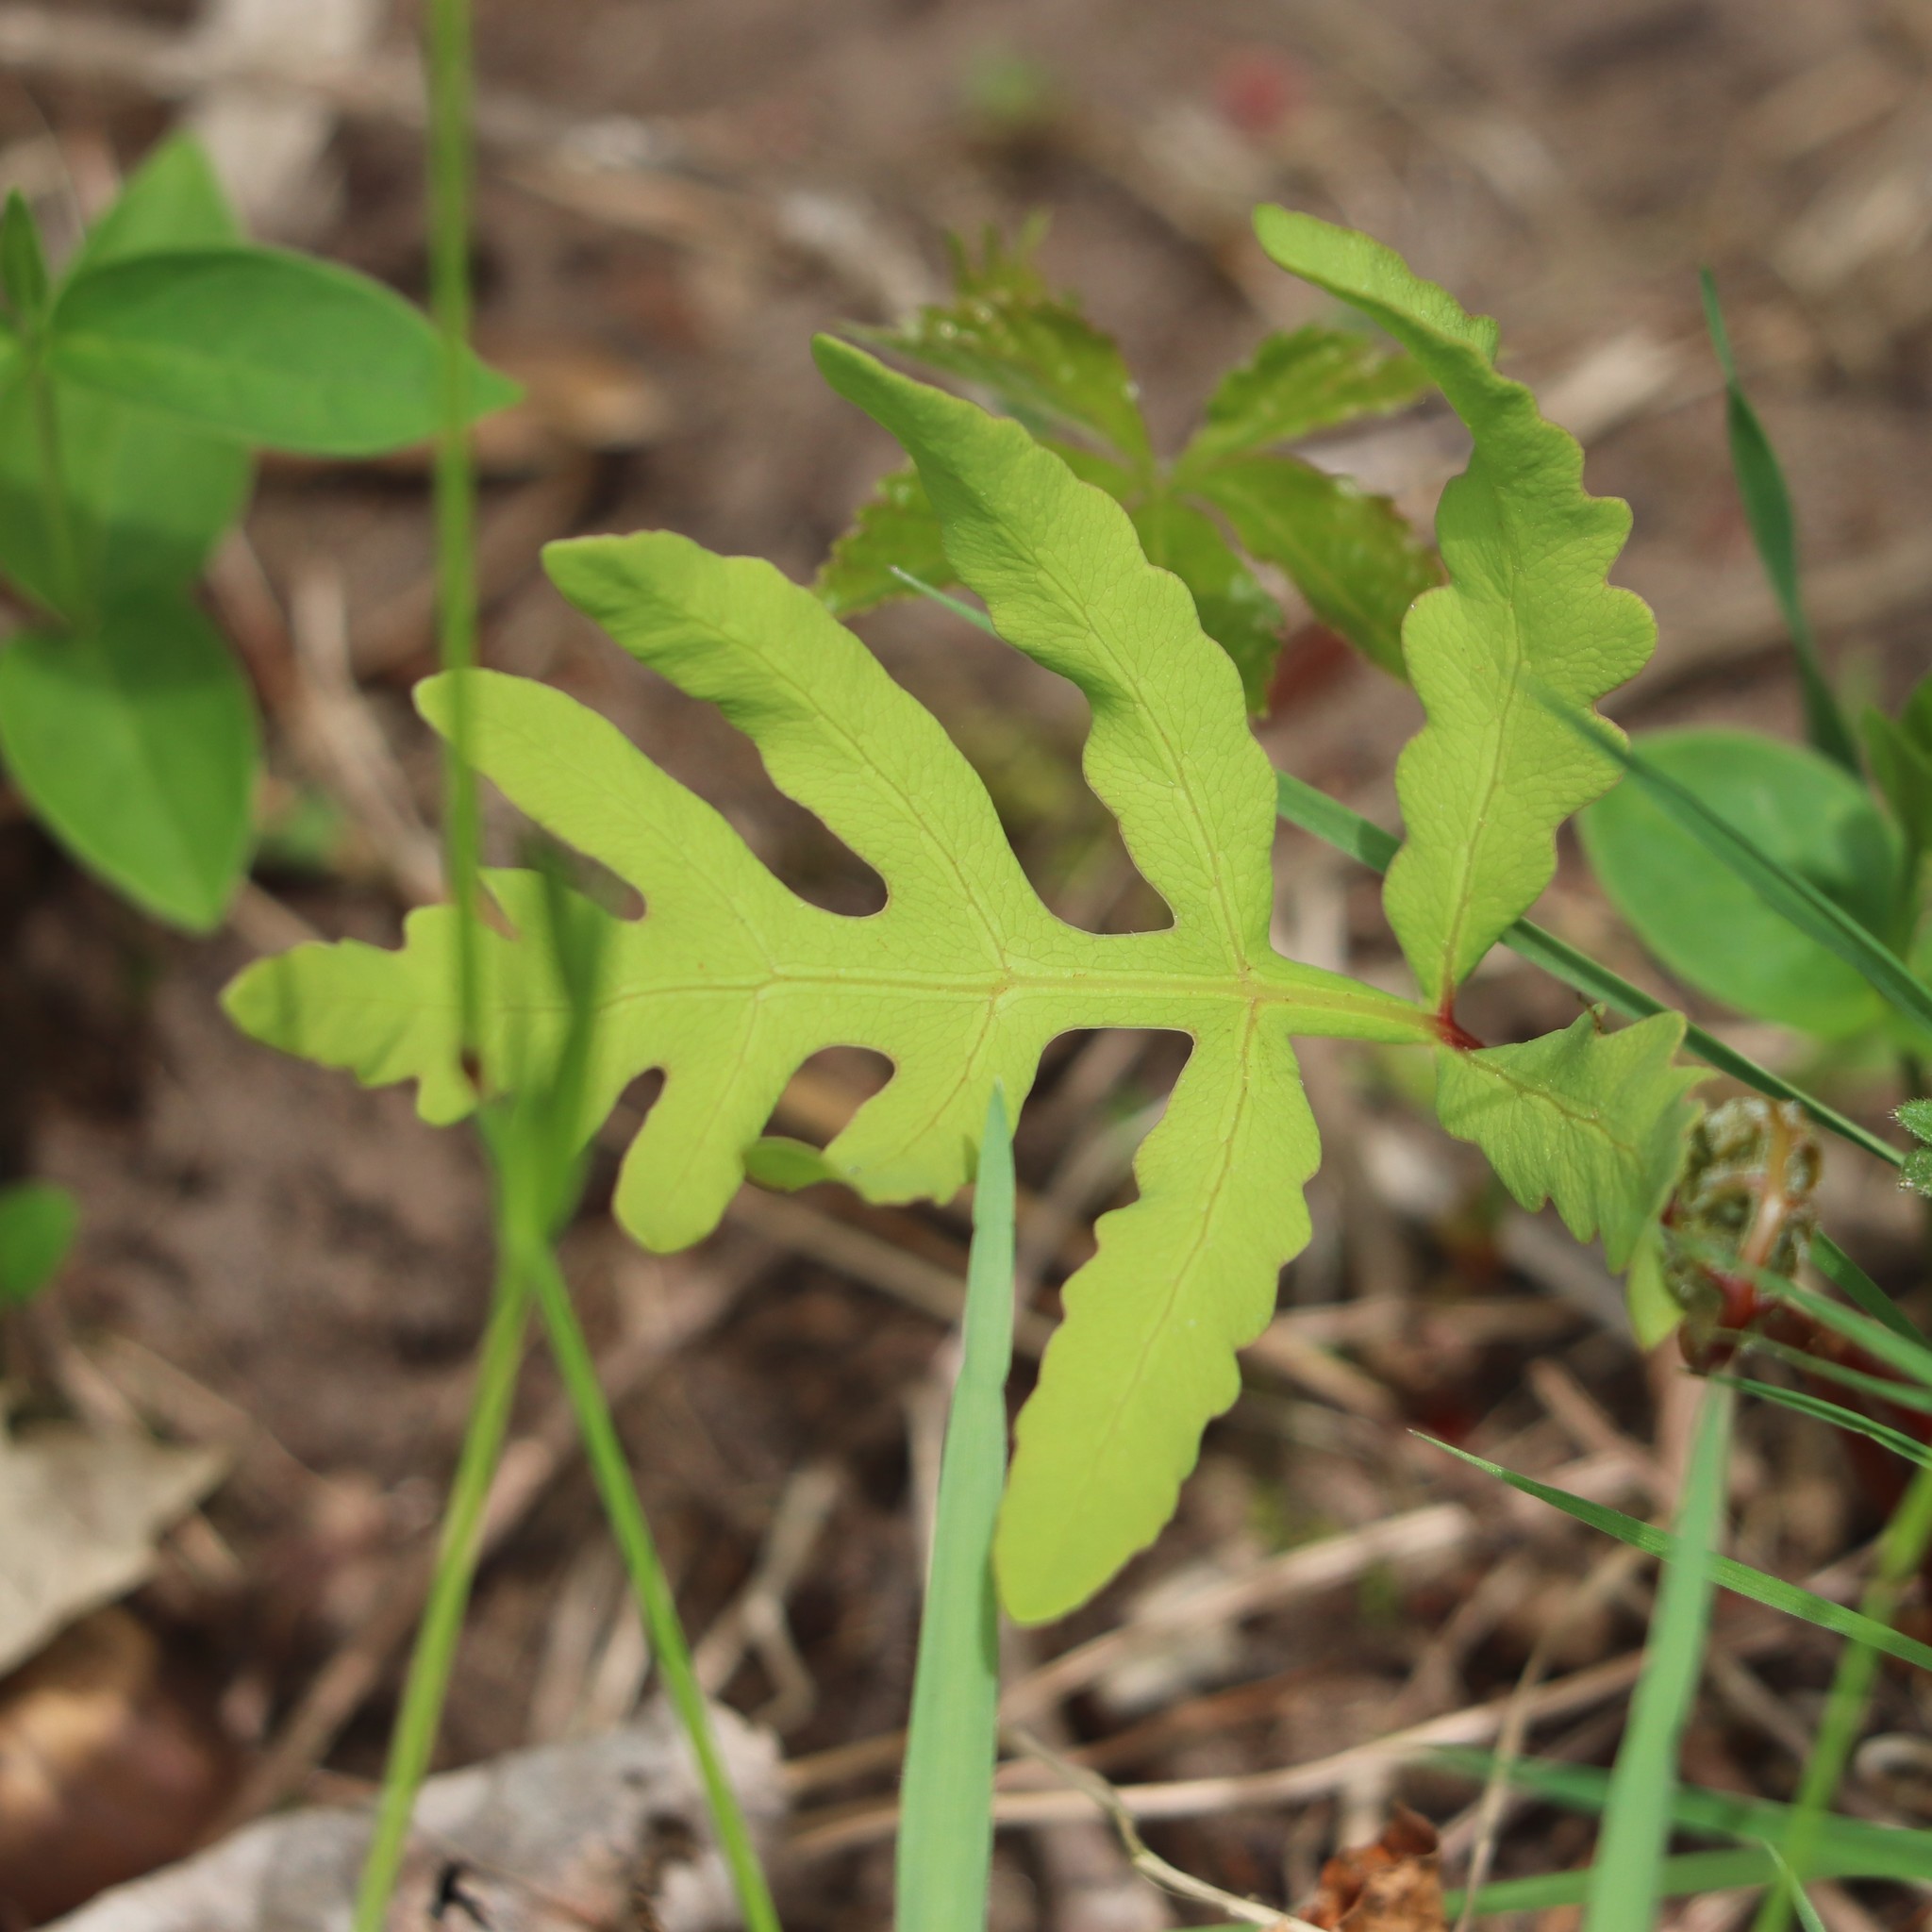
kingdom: Plantae
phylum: Tracheophyta
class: Polypodiopsida
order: Polypodiales
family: Onocleaceae
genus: Onoclea
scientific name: Onoclea sensibilis
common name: Sensitive fern
